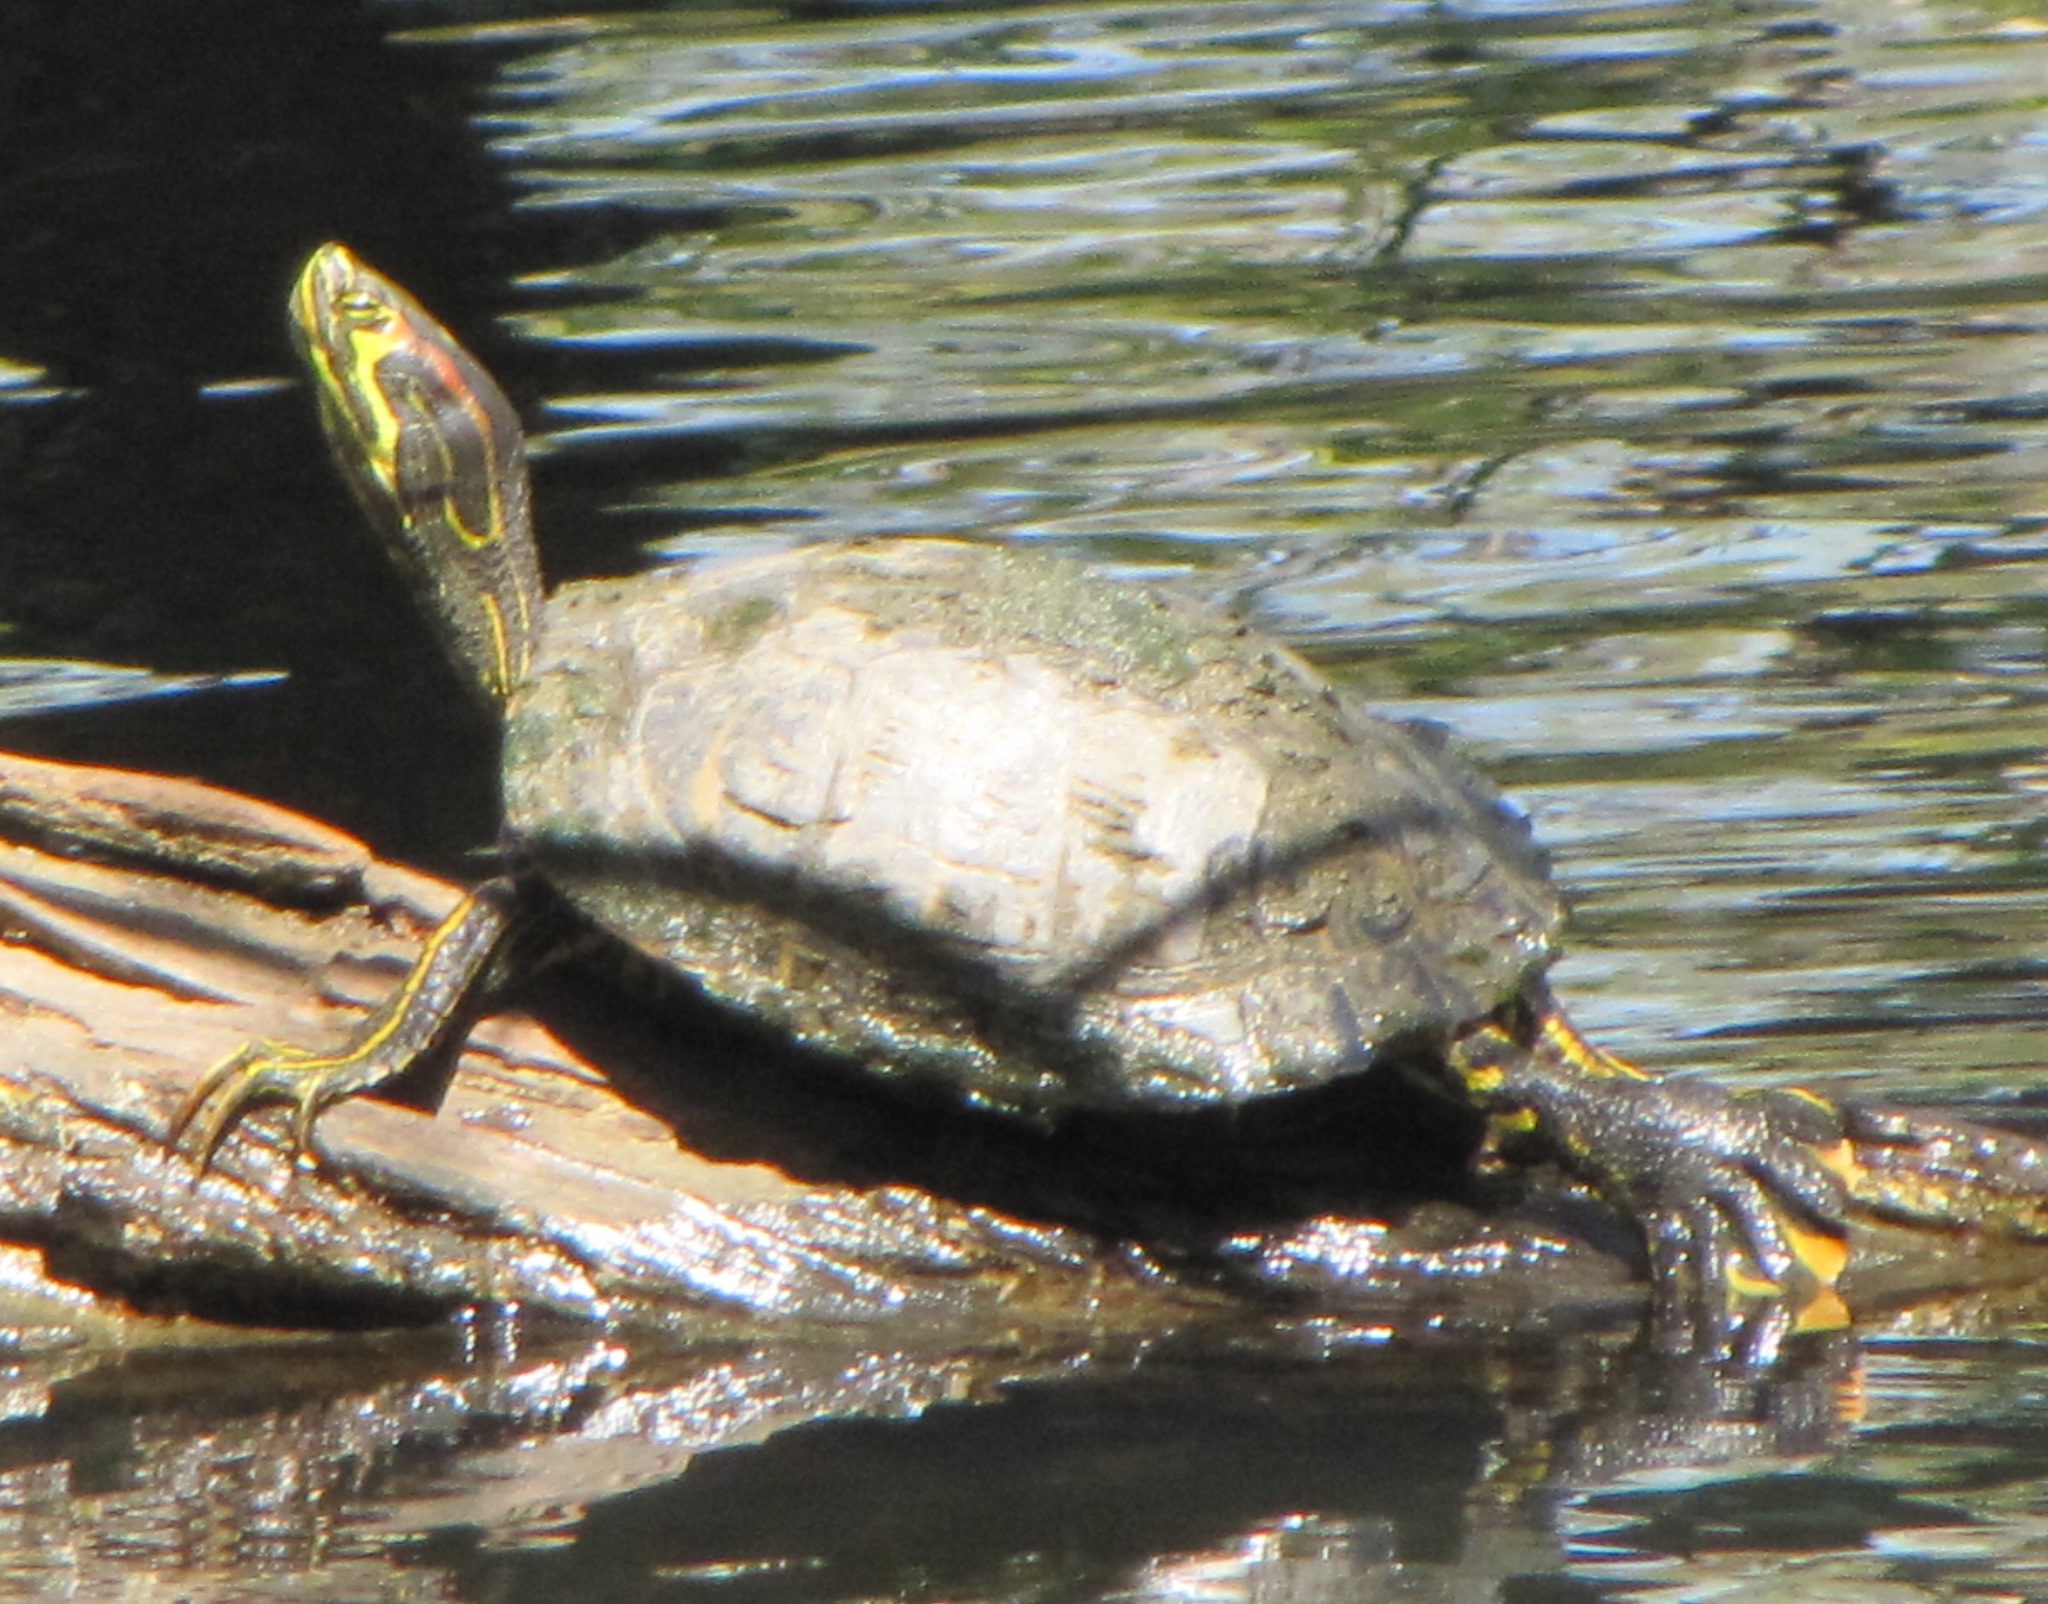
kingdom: Animalia
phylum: Chordata
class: Testudines
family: Emydidae
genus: Trachemys
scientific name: Trachemys scripta
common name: Slider
